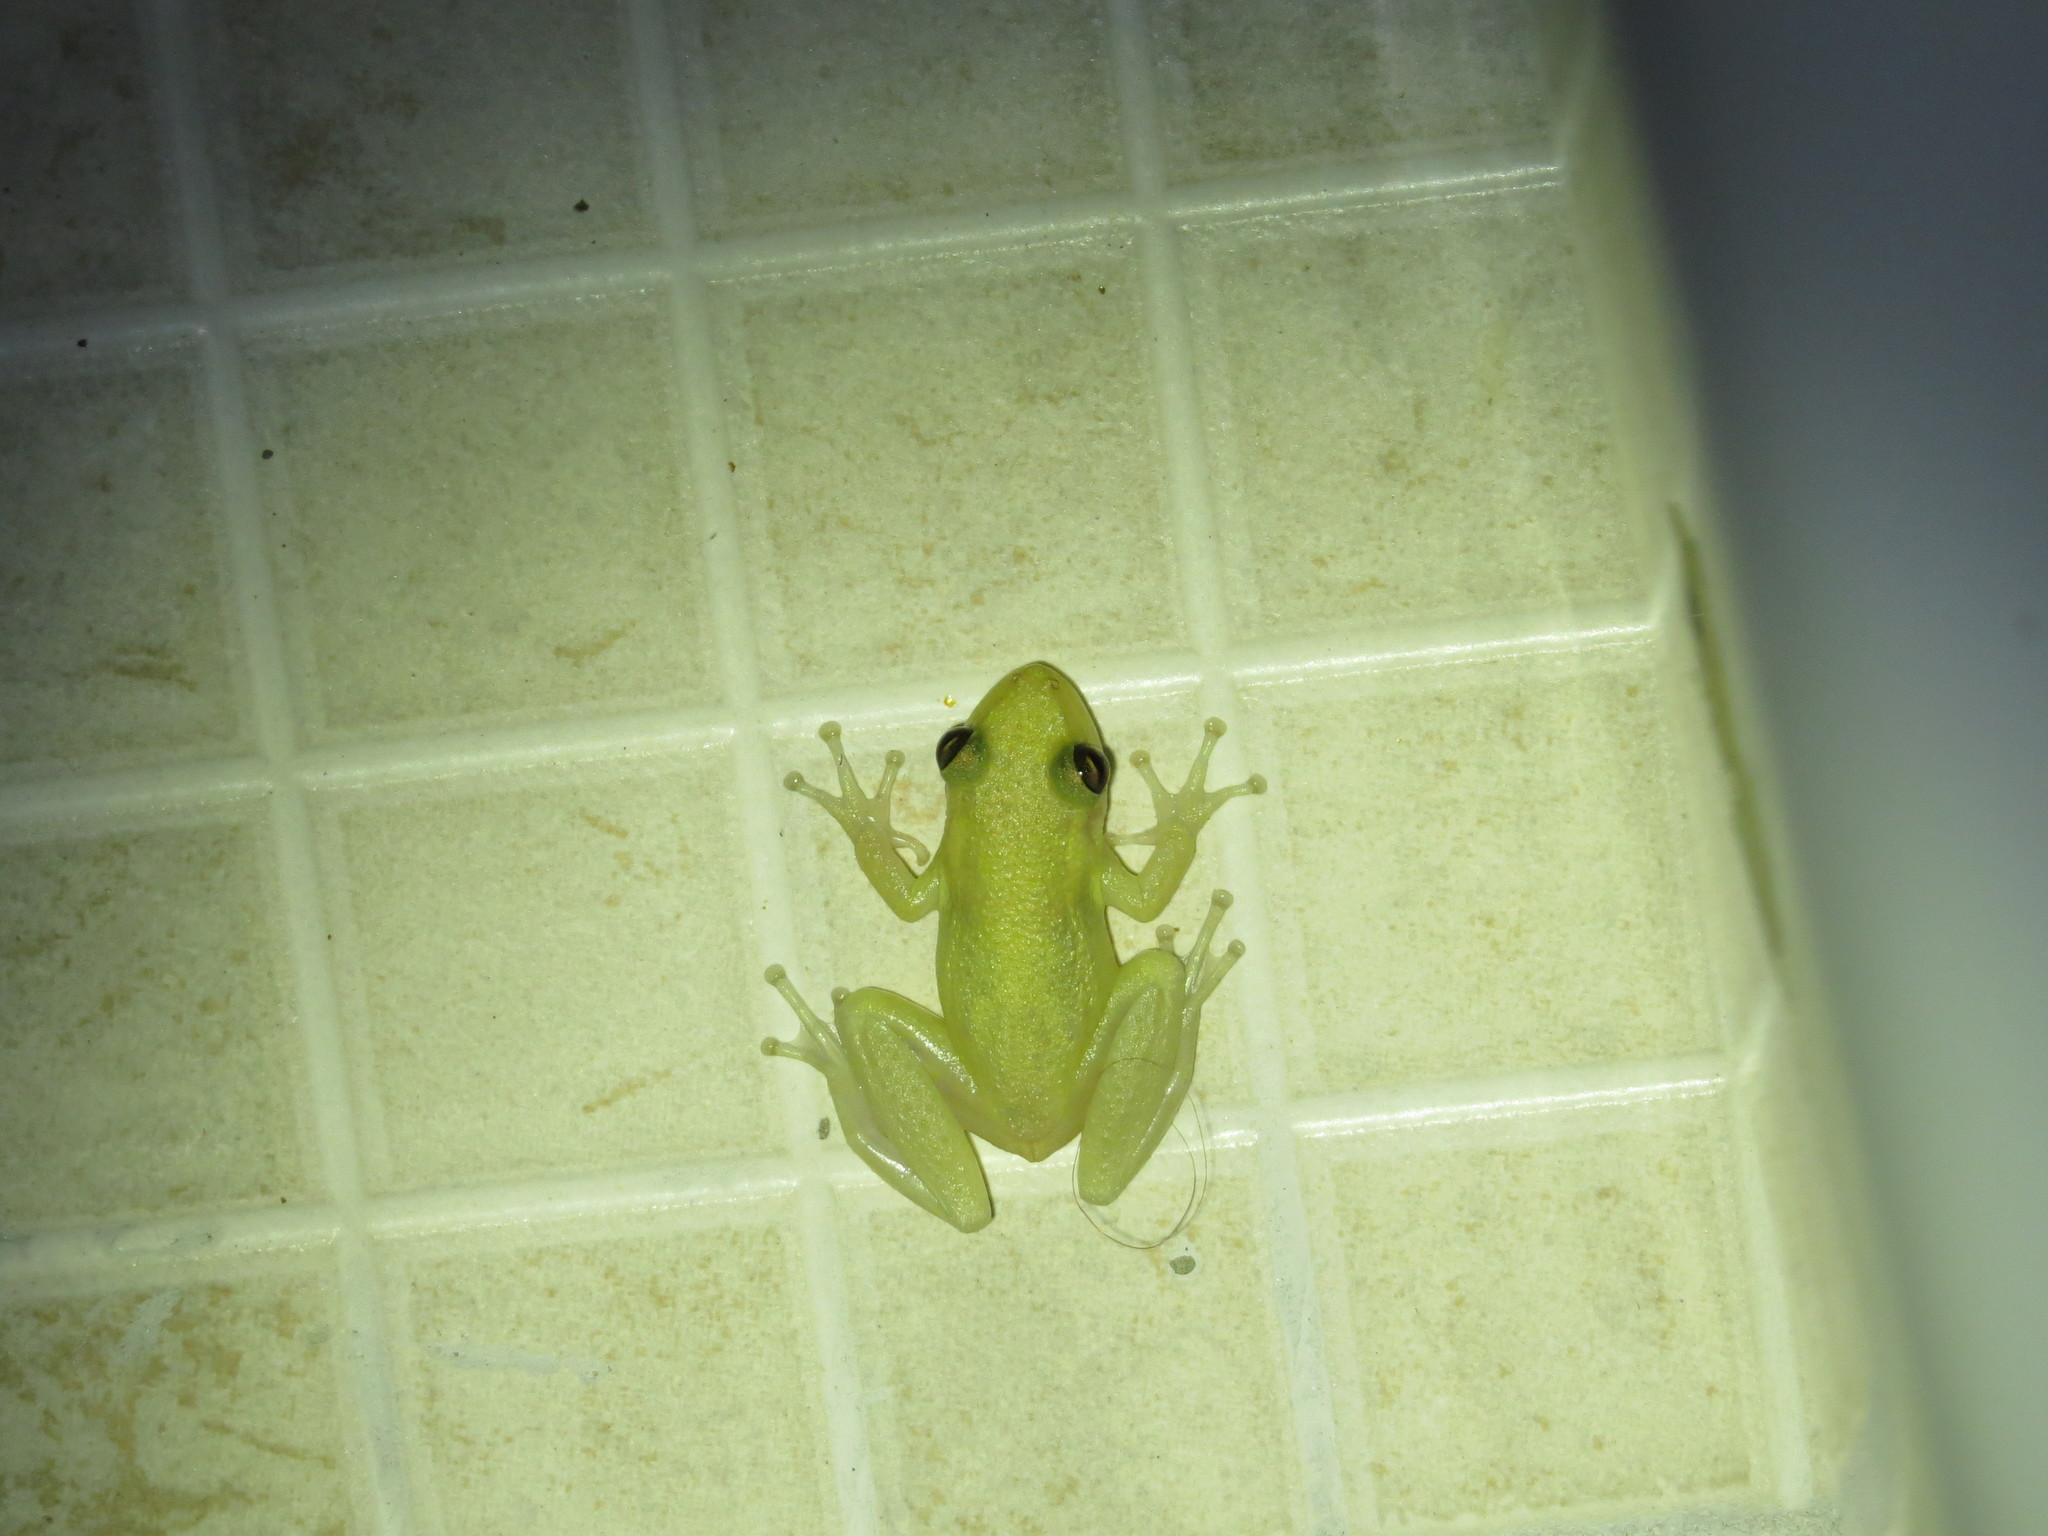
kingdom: Animalia
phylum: Chordata
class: Amphibia
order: Anura
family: Hylidae
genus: Scinax
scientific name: Scinax ruber
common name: Red snouted treefrog
